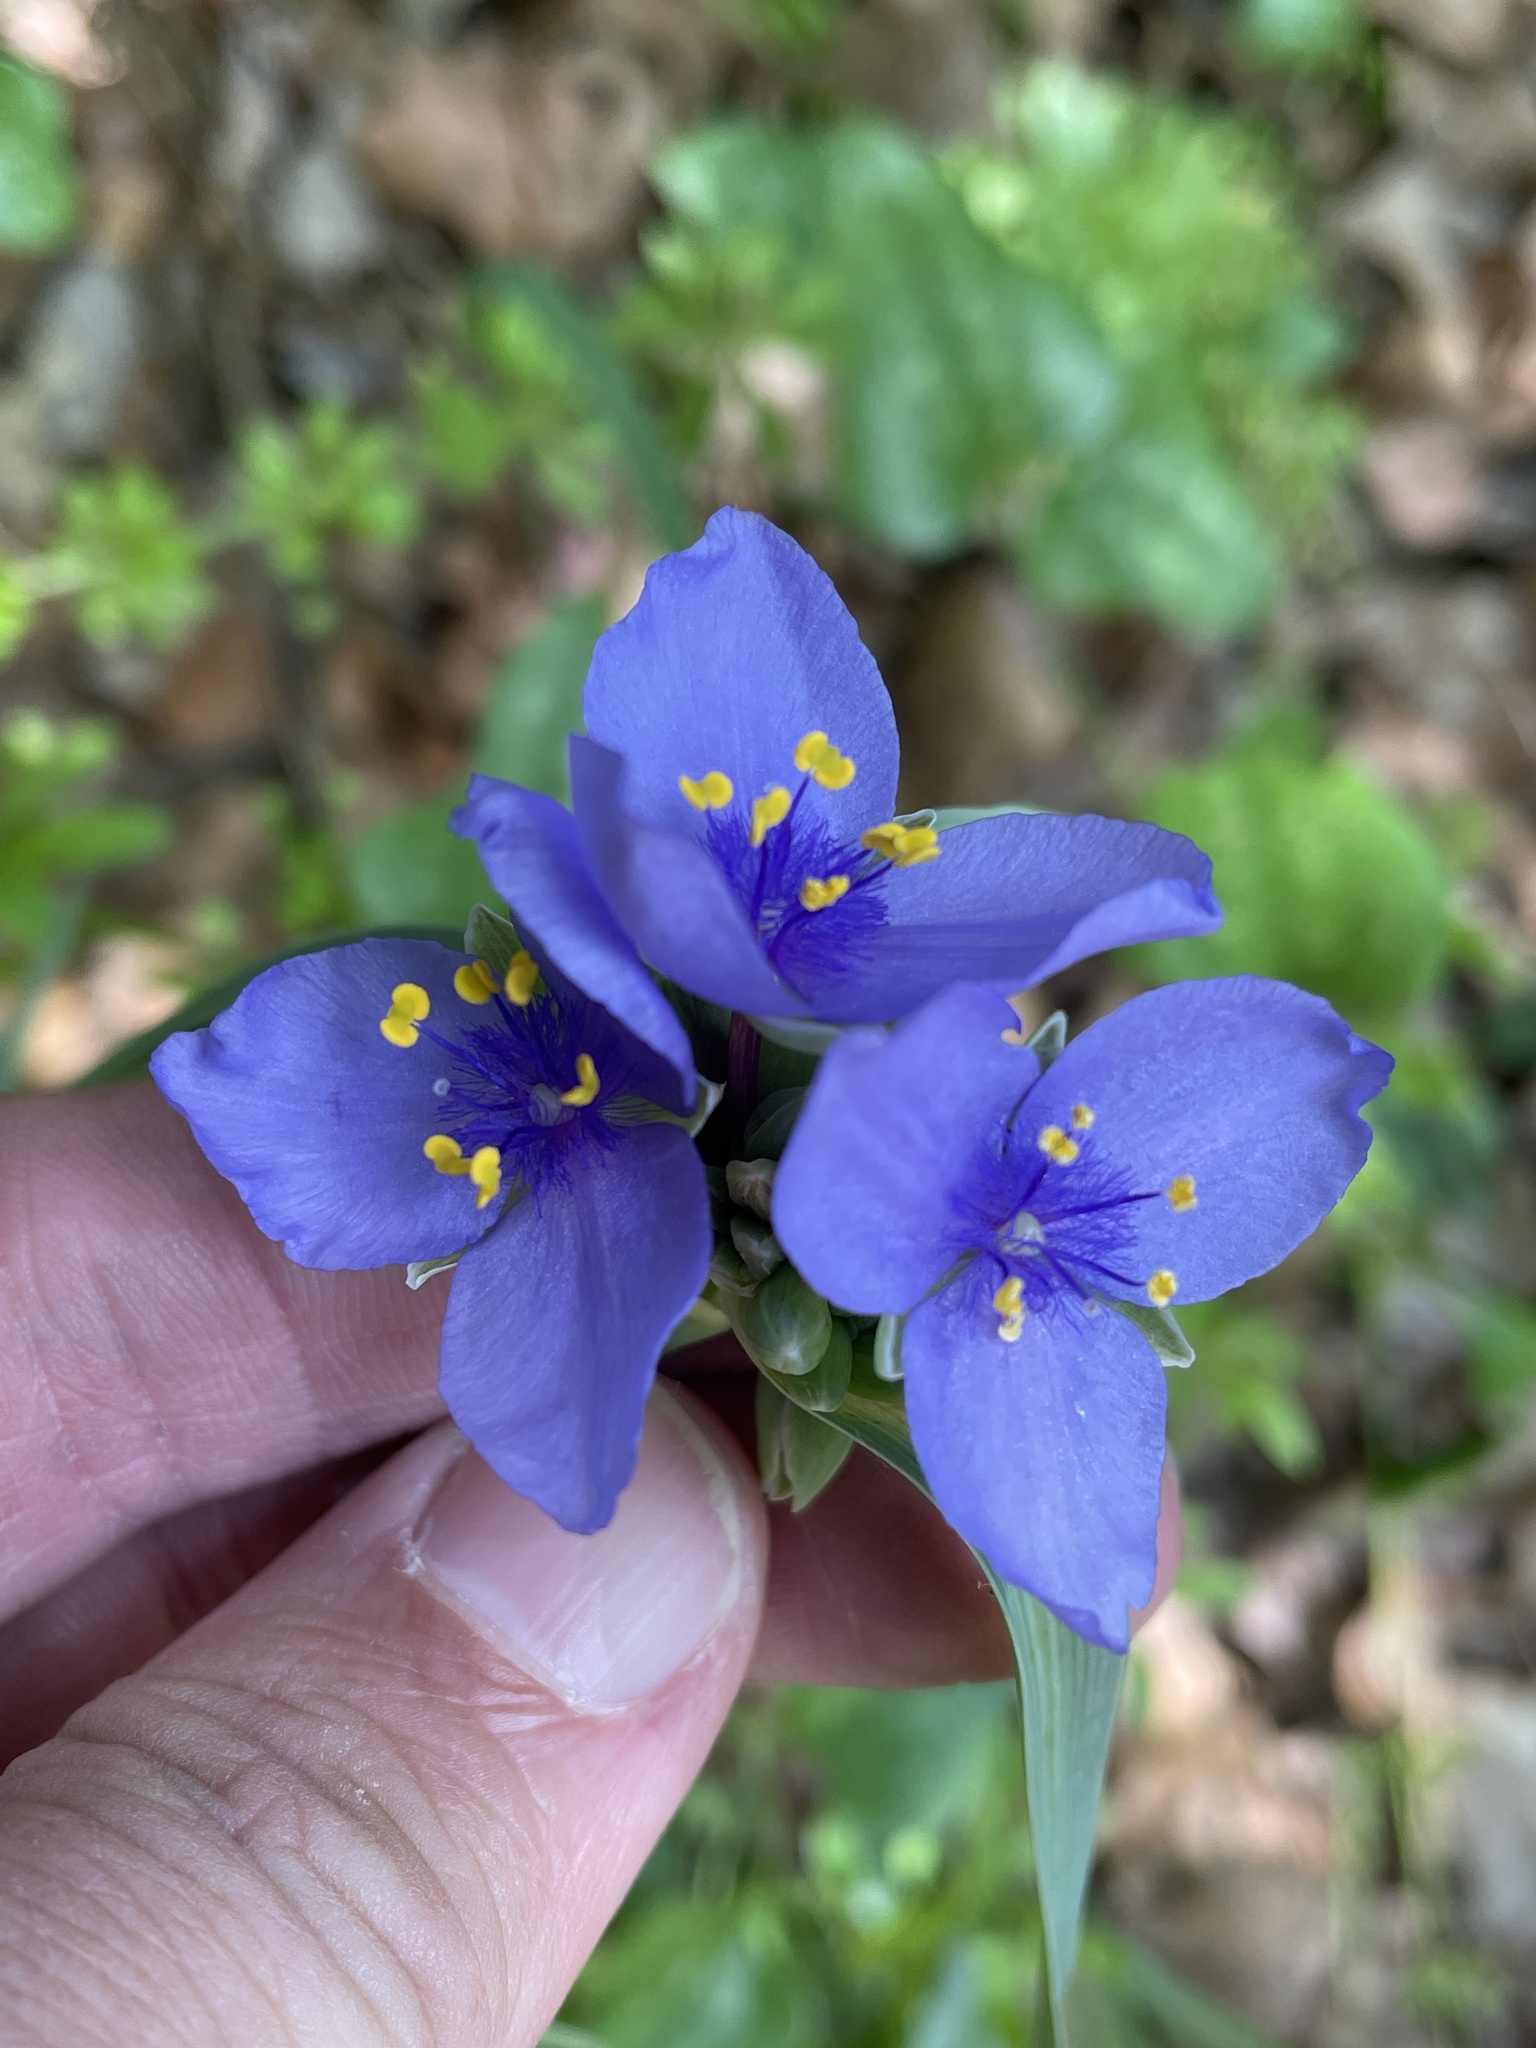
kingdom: Plantae
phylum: Tracheophyta
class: Liliopsida
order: Commelinales
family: Commelinaceae
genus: Tradescantia
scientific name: Tradescantia ohiensis
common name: Ohio spiderwort
